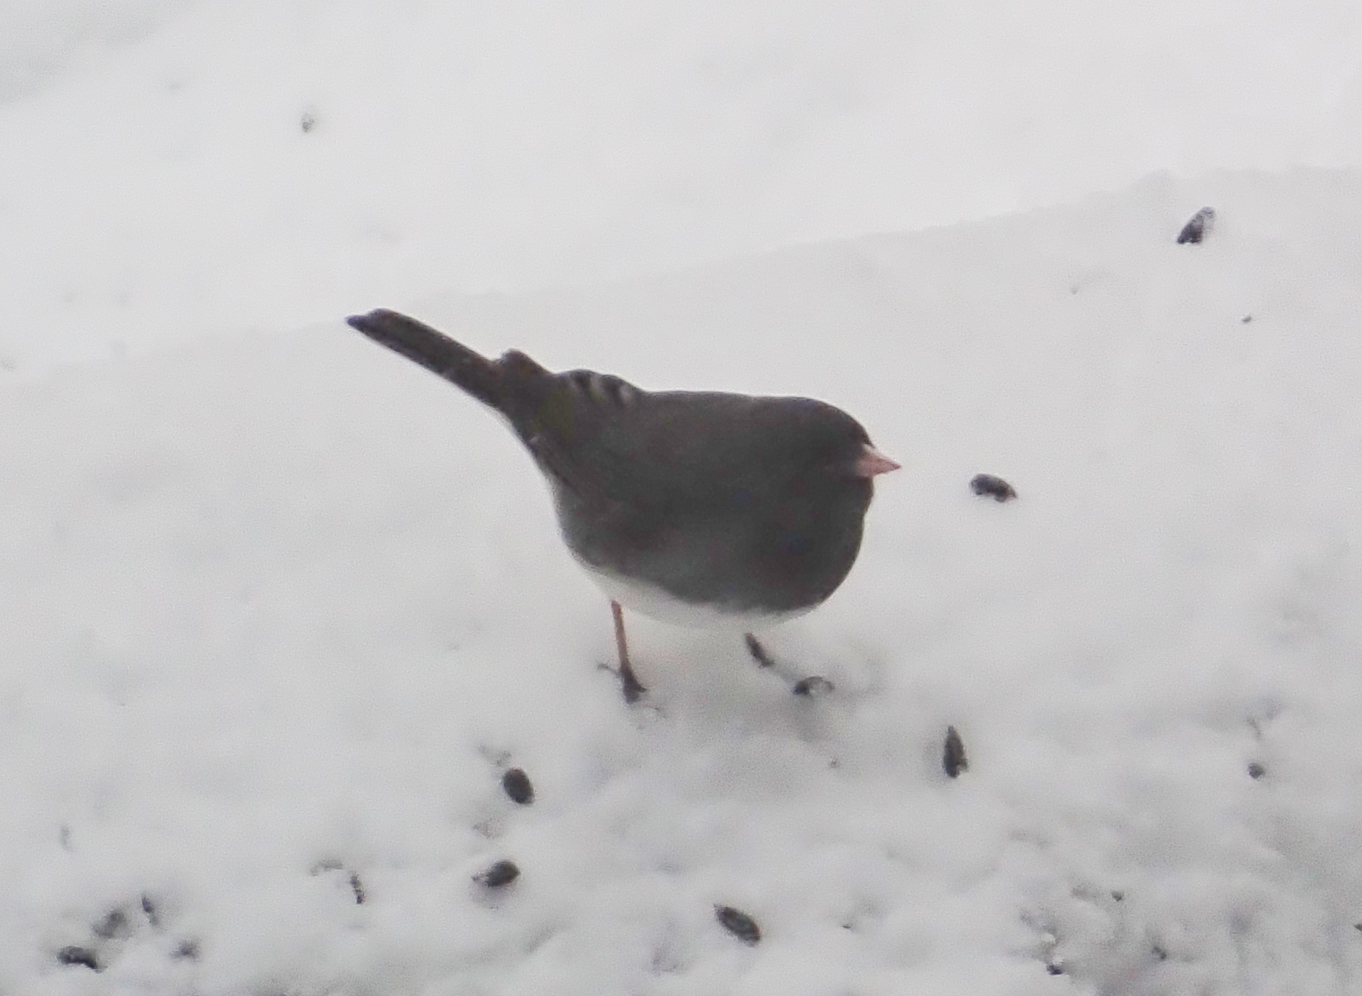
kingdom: Animalia
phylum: Chordata
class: Aves
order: Passeriformes
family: Passerellidae
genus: Junco
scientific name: Junco hyemalis
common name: Dark-eyed junco
